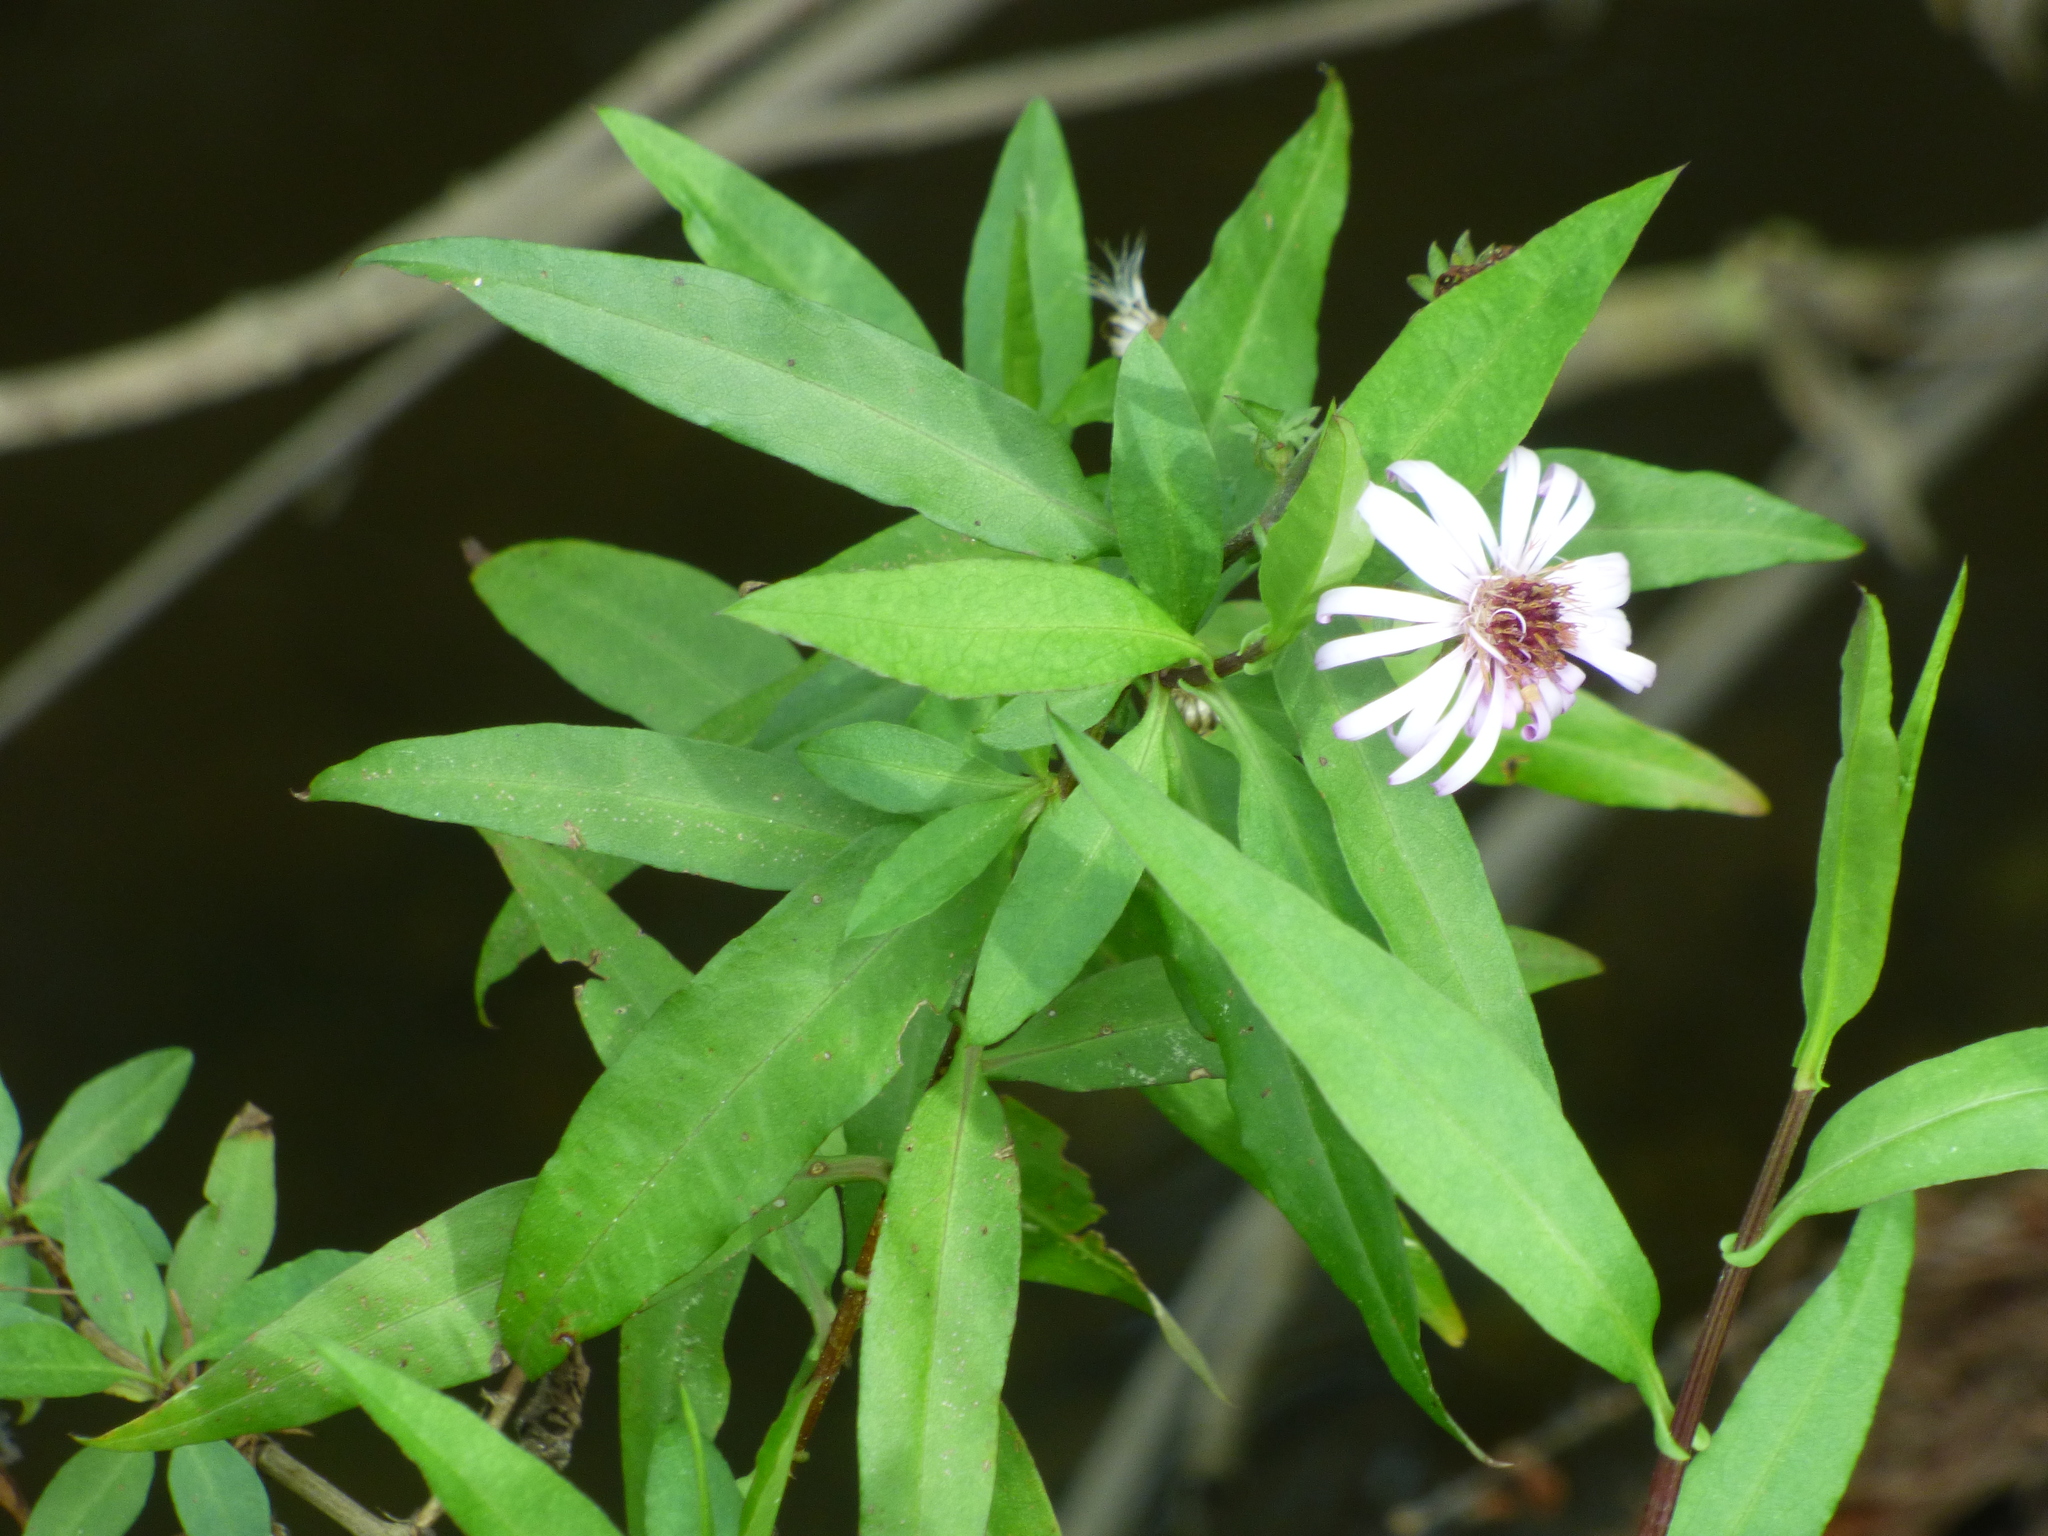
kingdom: Plantae
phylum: Tracheophyta
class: Magnoliopsida
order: Asterales
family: Asteraceae
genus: Ampelaster
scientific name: Ampelaster carolinianus
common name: Climbing aster
